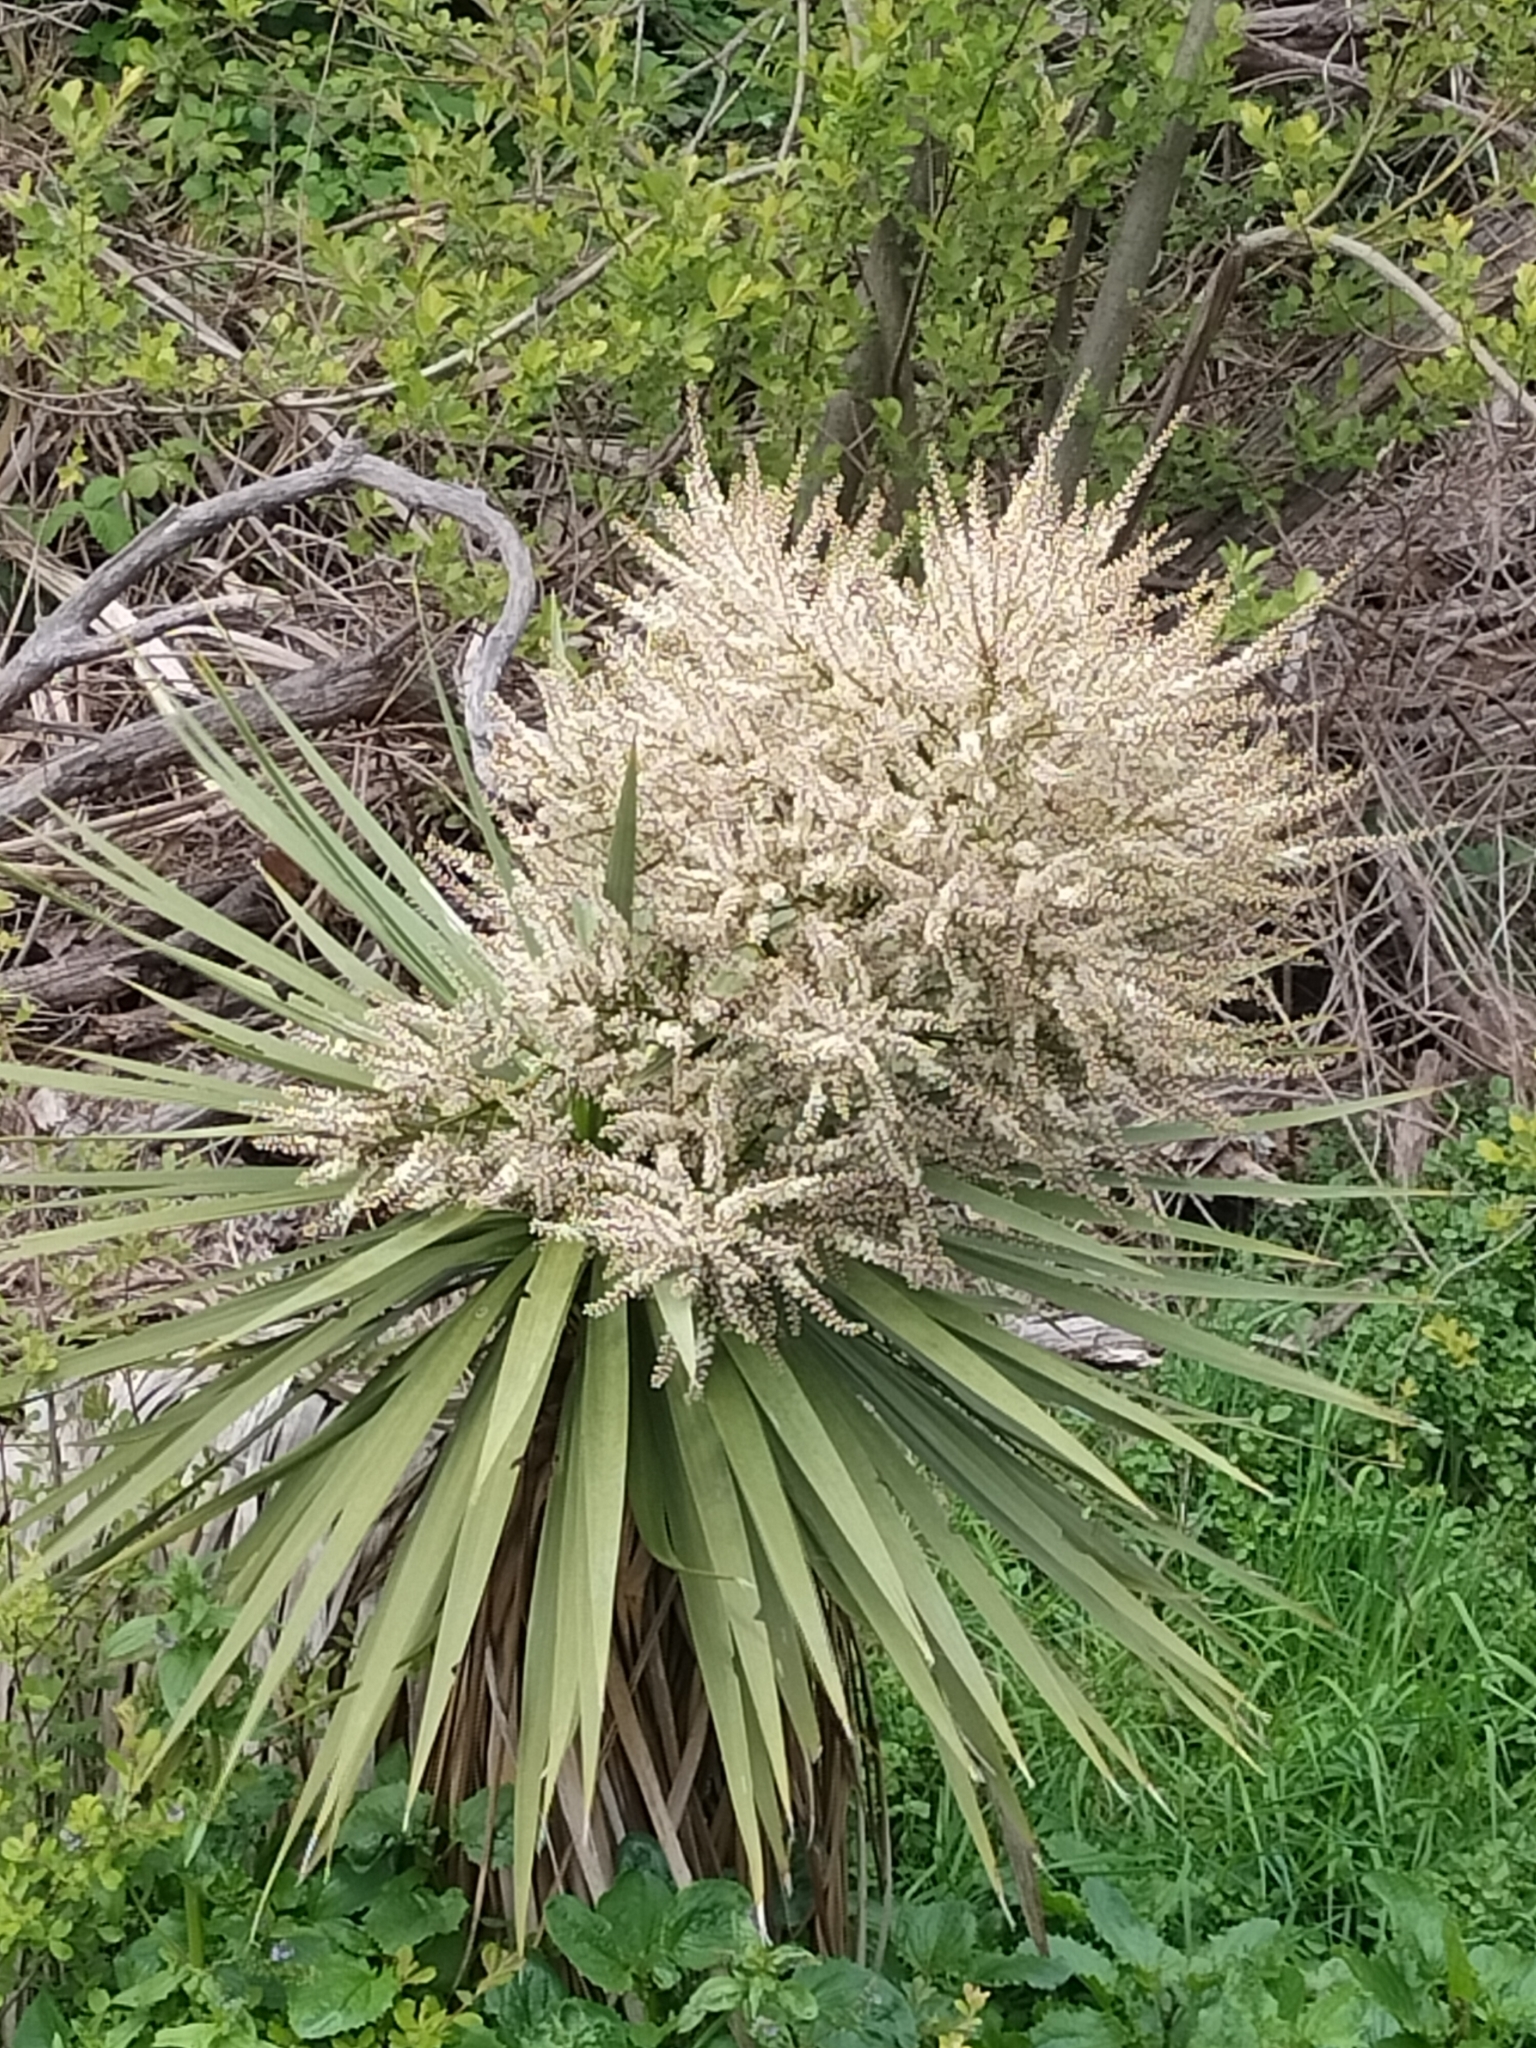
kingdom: Plantae
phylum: Tracheophyta
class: Liliopsida
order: Asparagales
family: Asparagaceae
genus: Cordyline
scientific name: Cordyline australis
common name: Cabbage-palm
